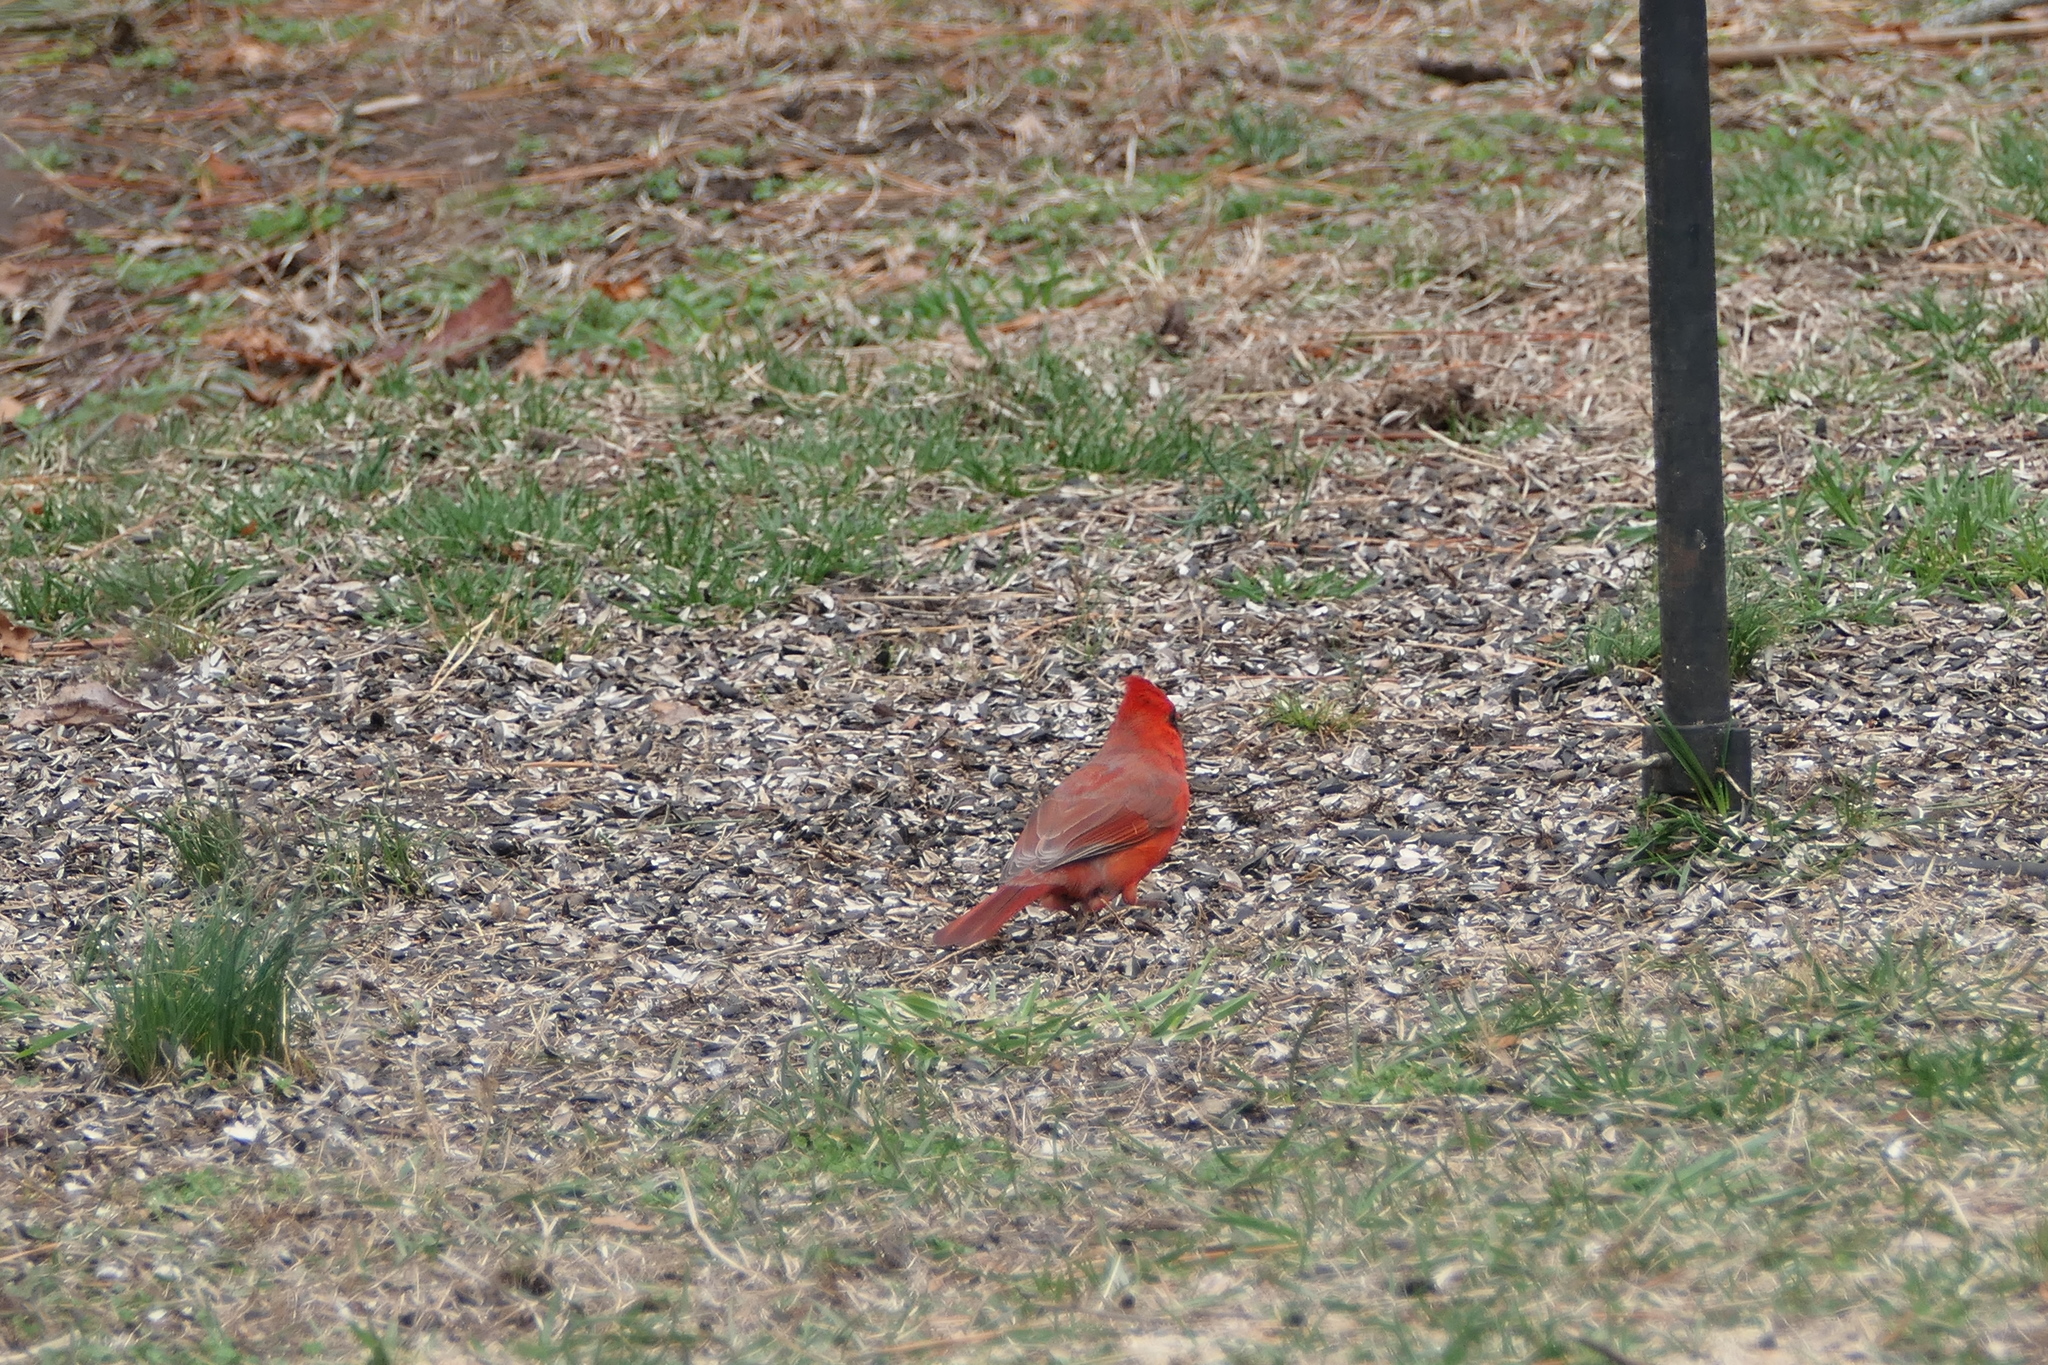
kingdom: Animalia
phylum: Chordata
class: Aves
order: Passeriformes
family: Cardinalidae
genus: Cardinalis
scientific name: Cardinalis cardinalis
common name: Northern cardinal
